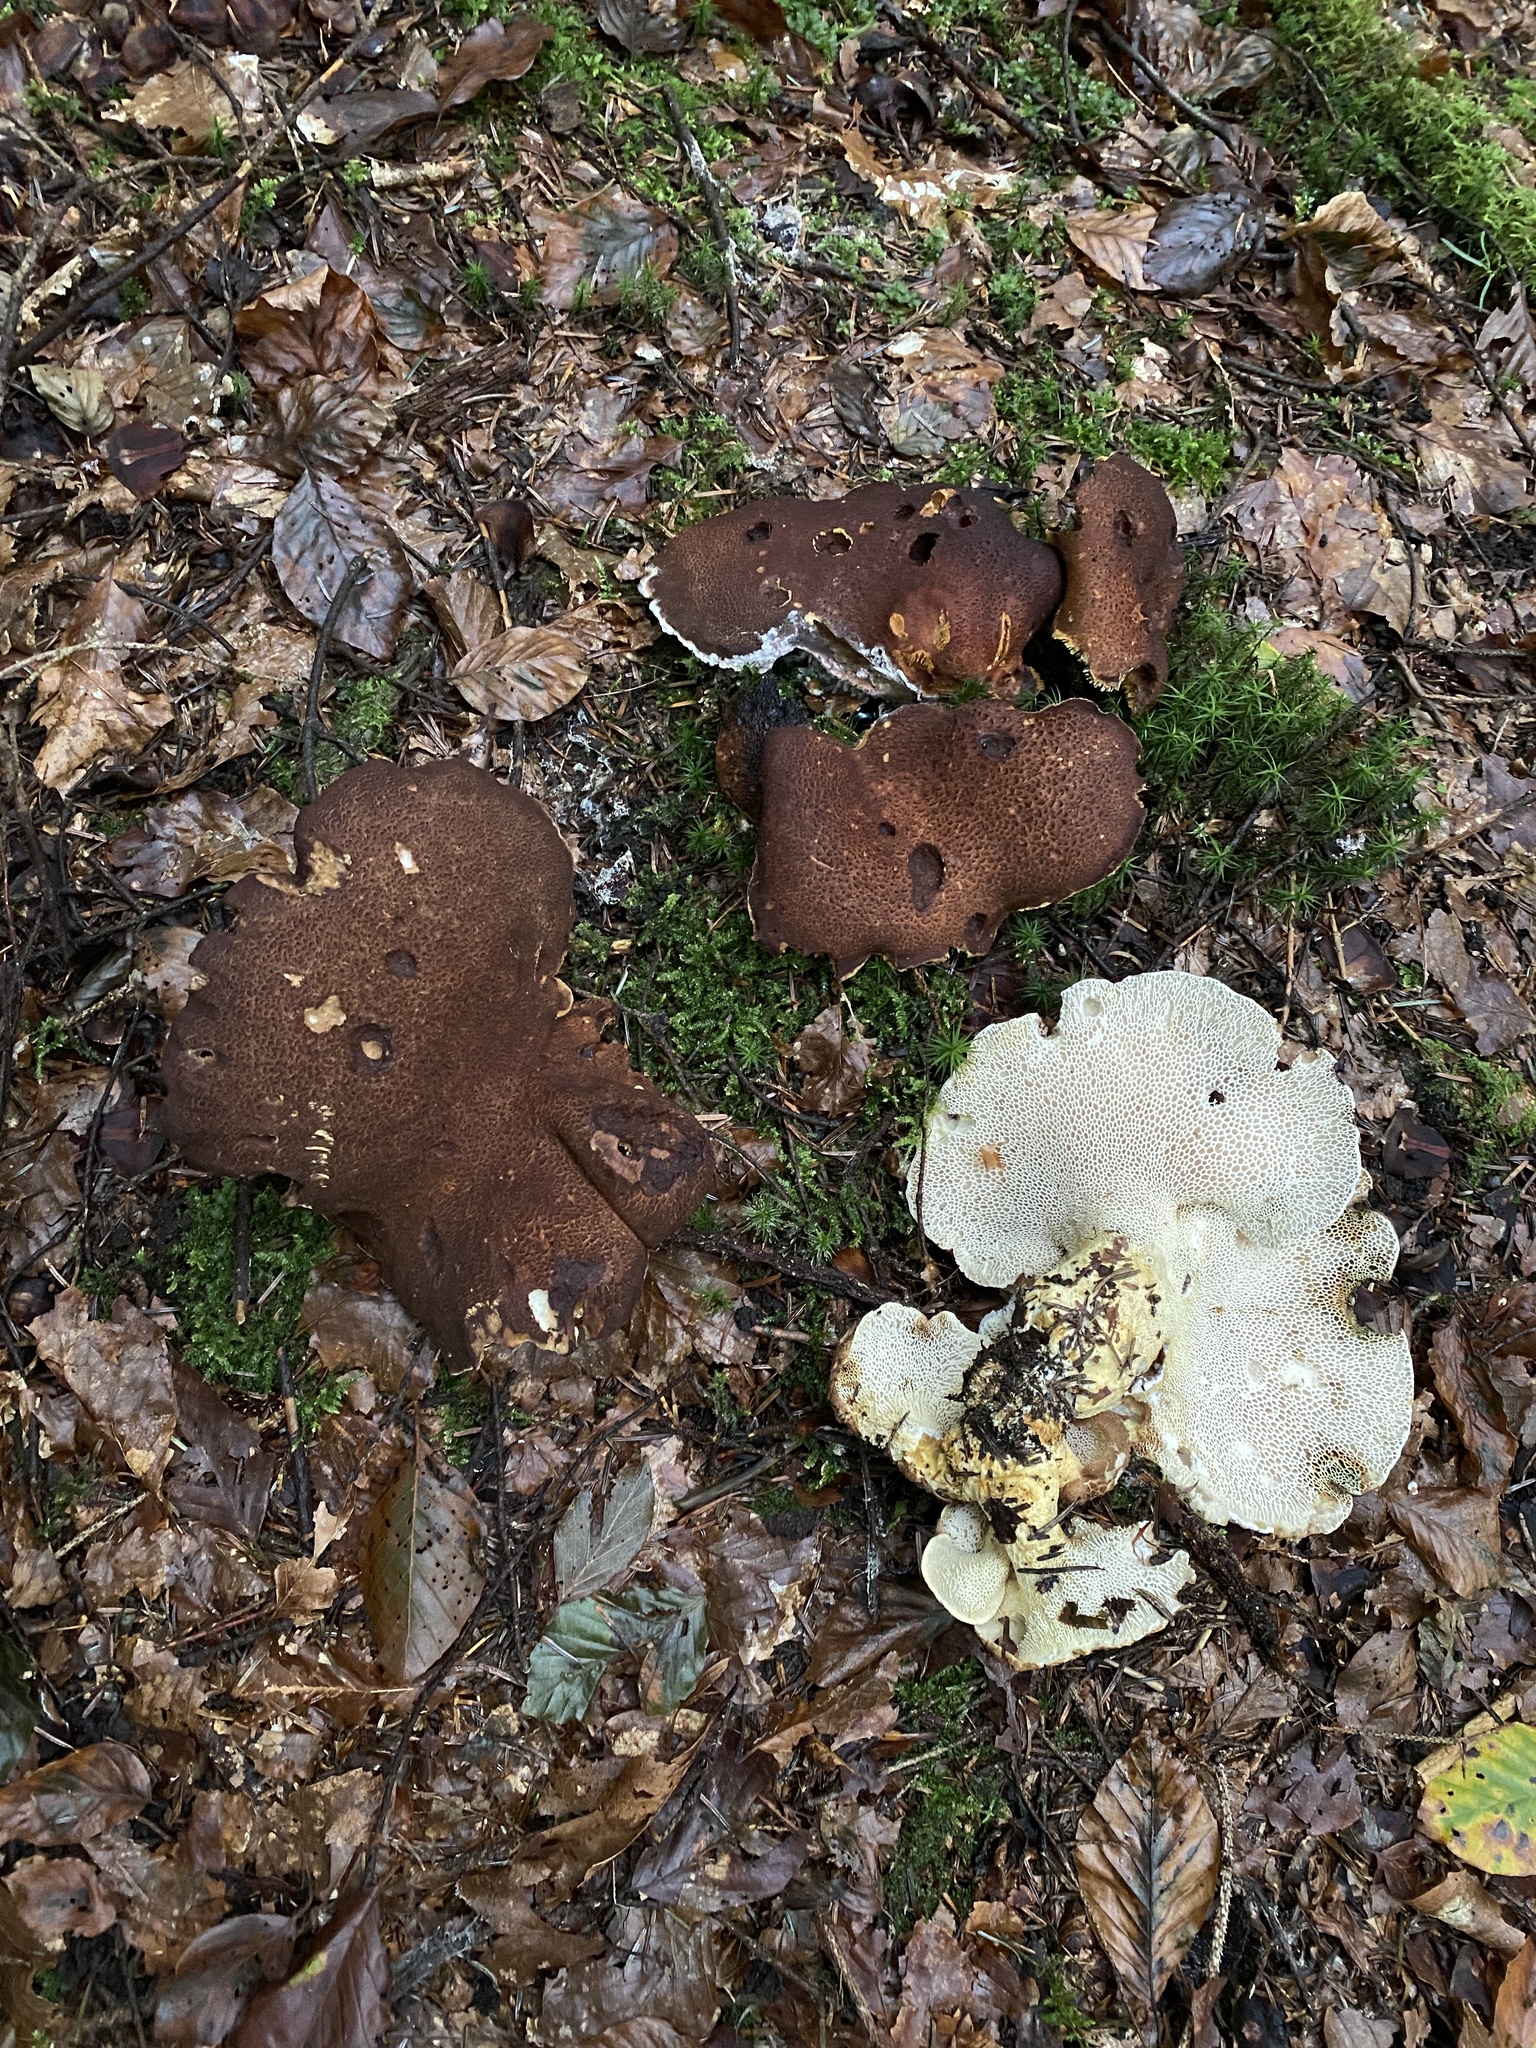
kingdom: Fungi
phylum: Basidiomycota
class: Agaricomycetes
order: Russulales
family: Albatrellaceae
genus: Scutiger
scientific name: Scutiger pes-caprae
